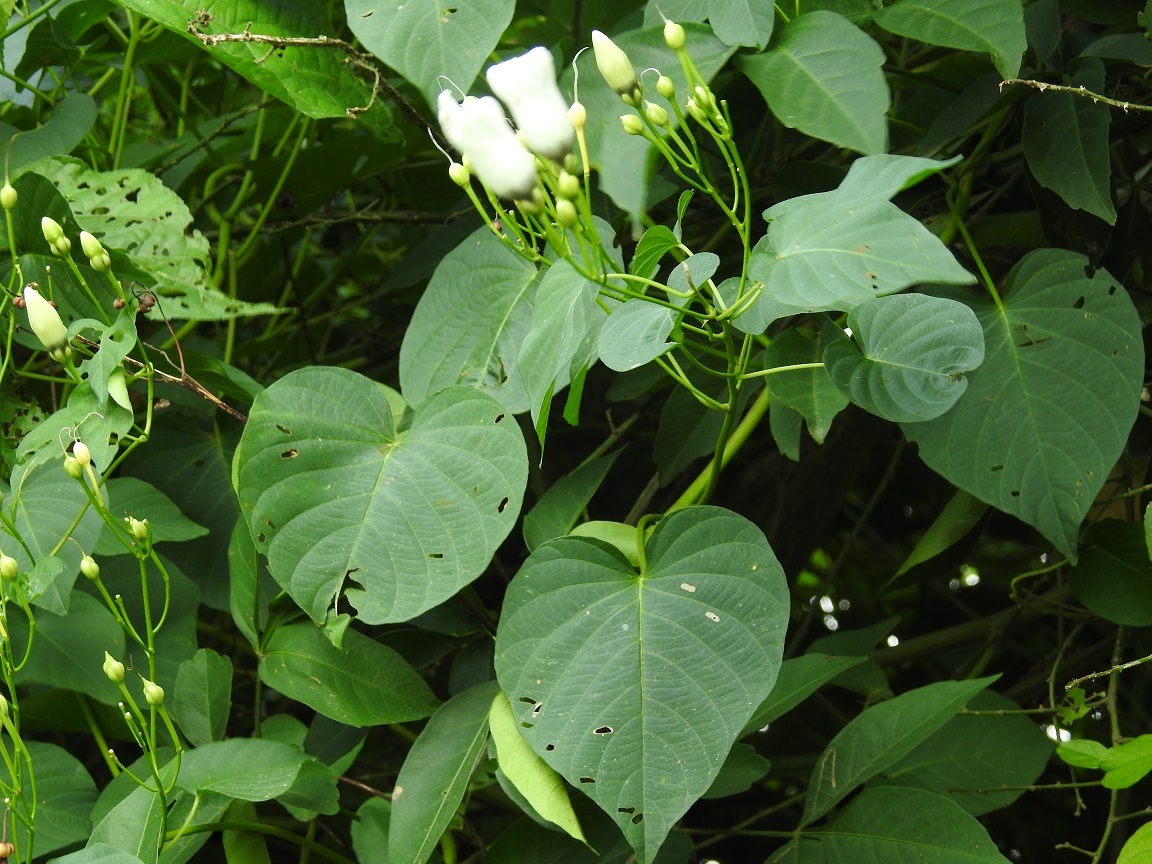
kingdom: Plantae
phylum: Tracheophyta
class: Magnoliopsida
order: Solanales
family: Convolvulaceae
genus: Ipomoea
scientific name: Ipomoea reticulata
